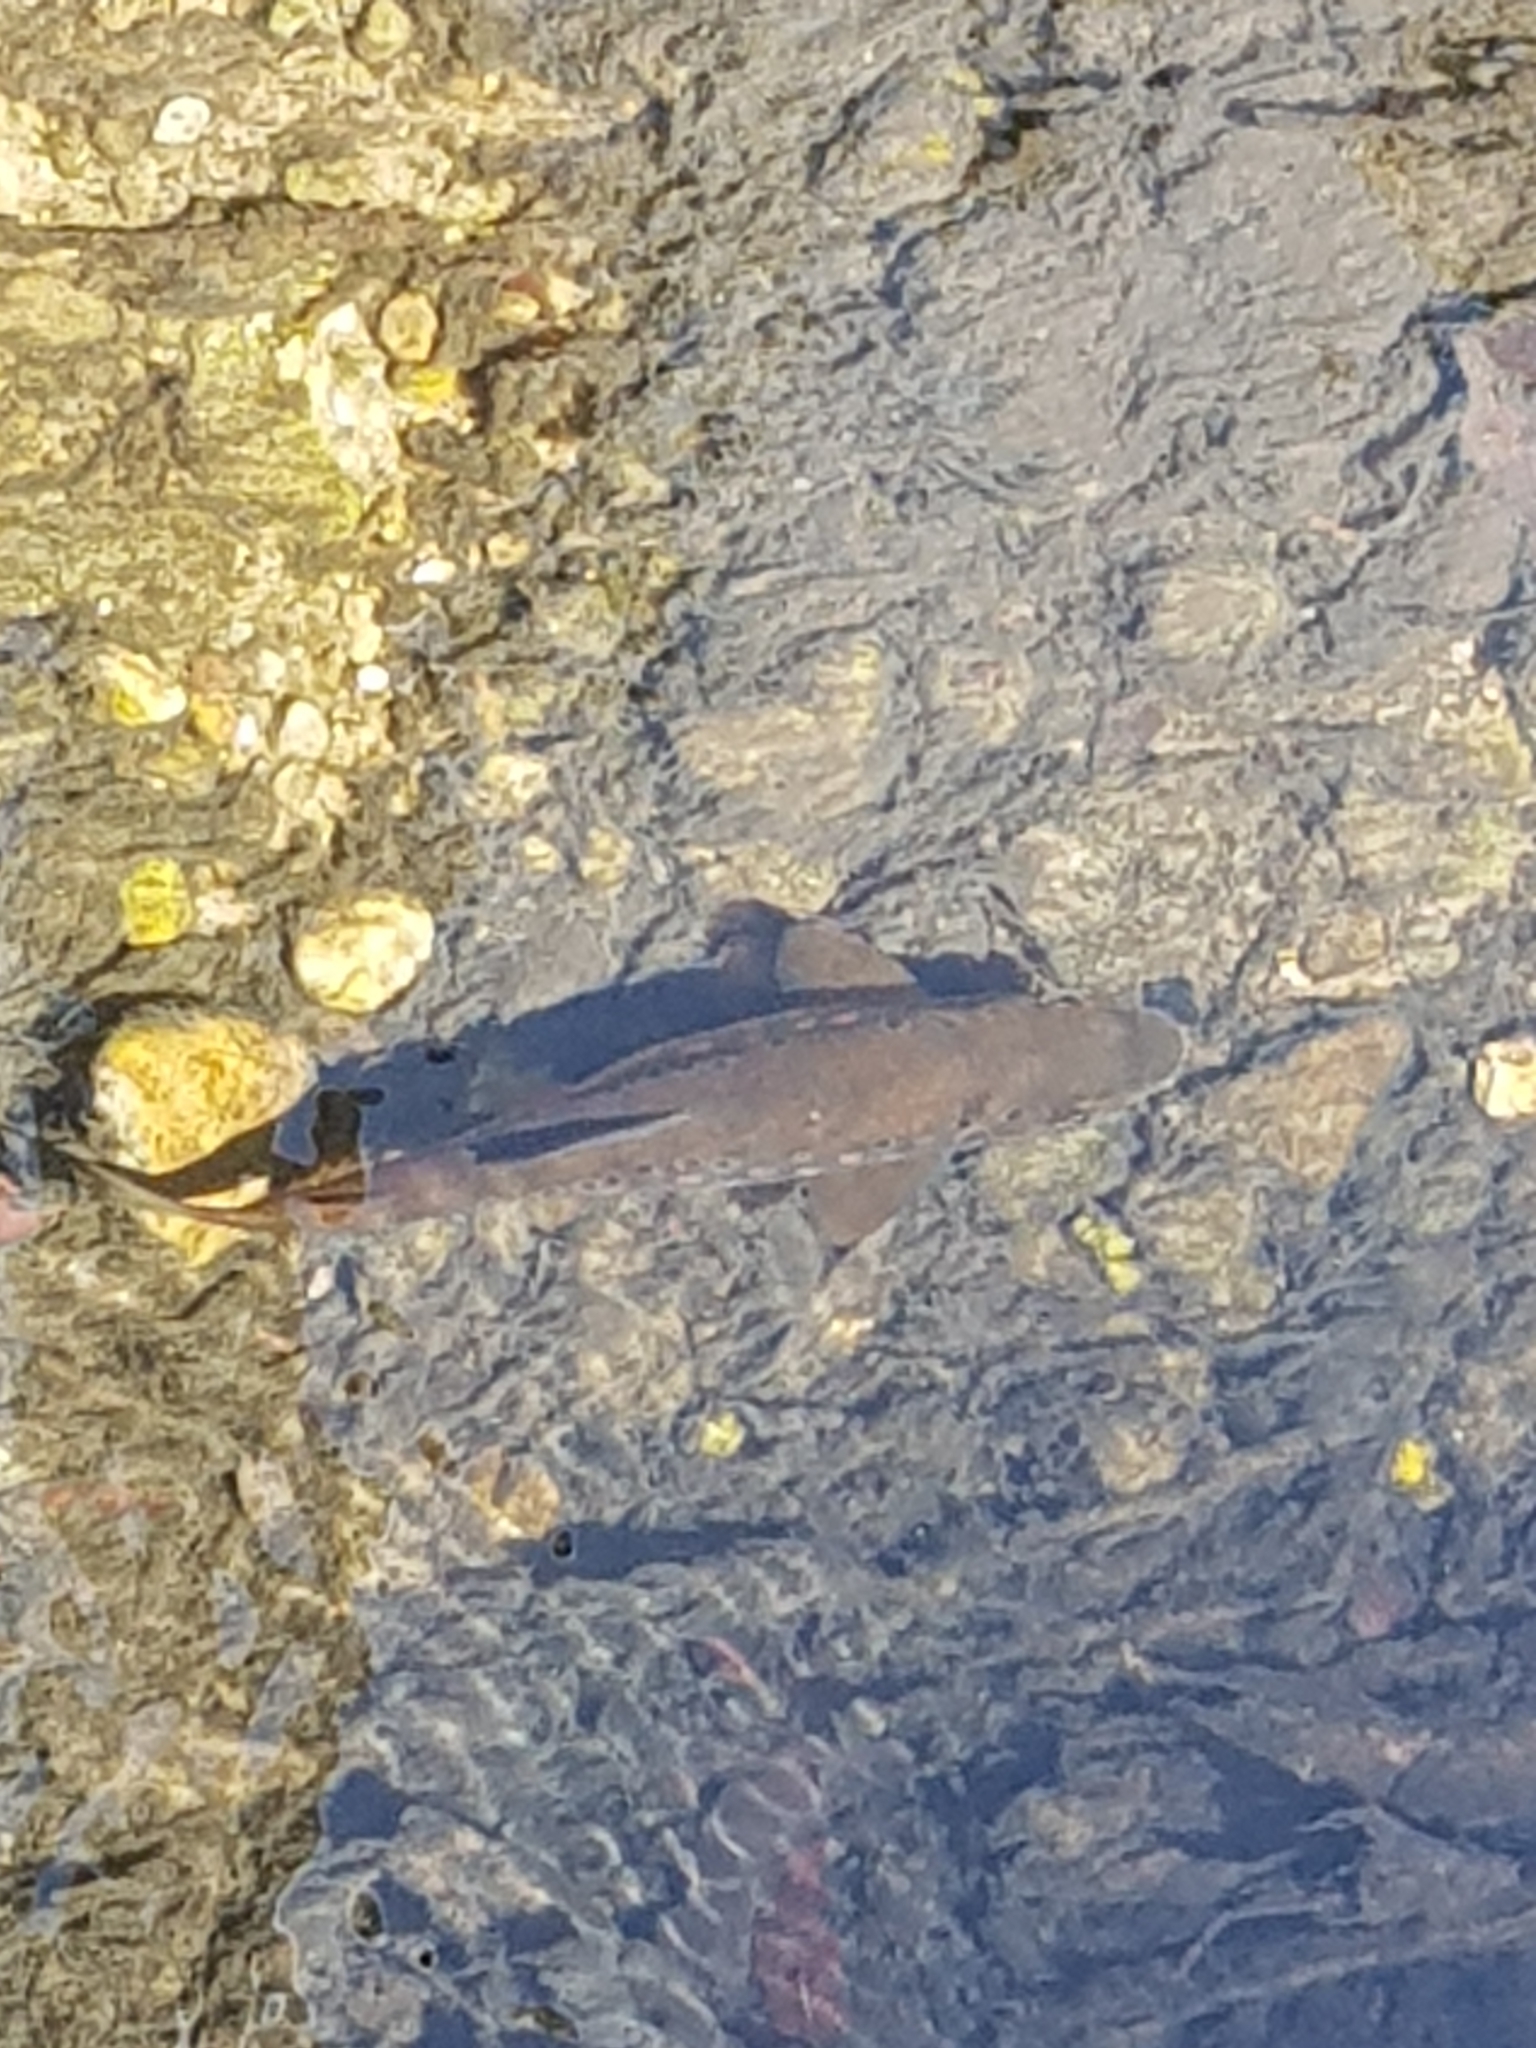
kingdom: Animalia
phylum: Chordata
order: Salmoniformes
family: Salmonidae
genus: Salmo
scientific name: Salmo trutta
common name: Brown trout
